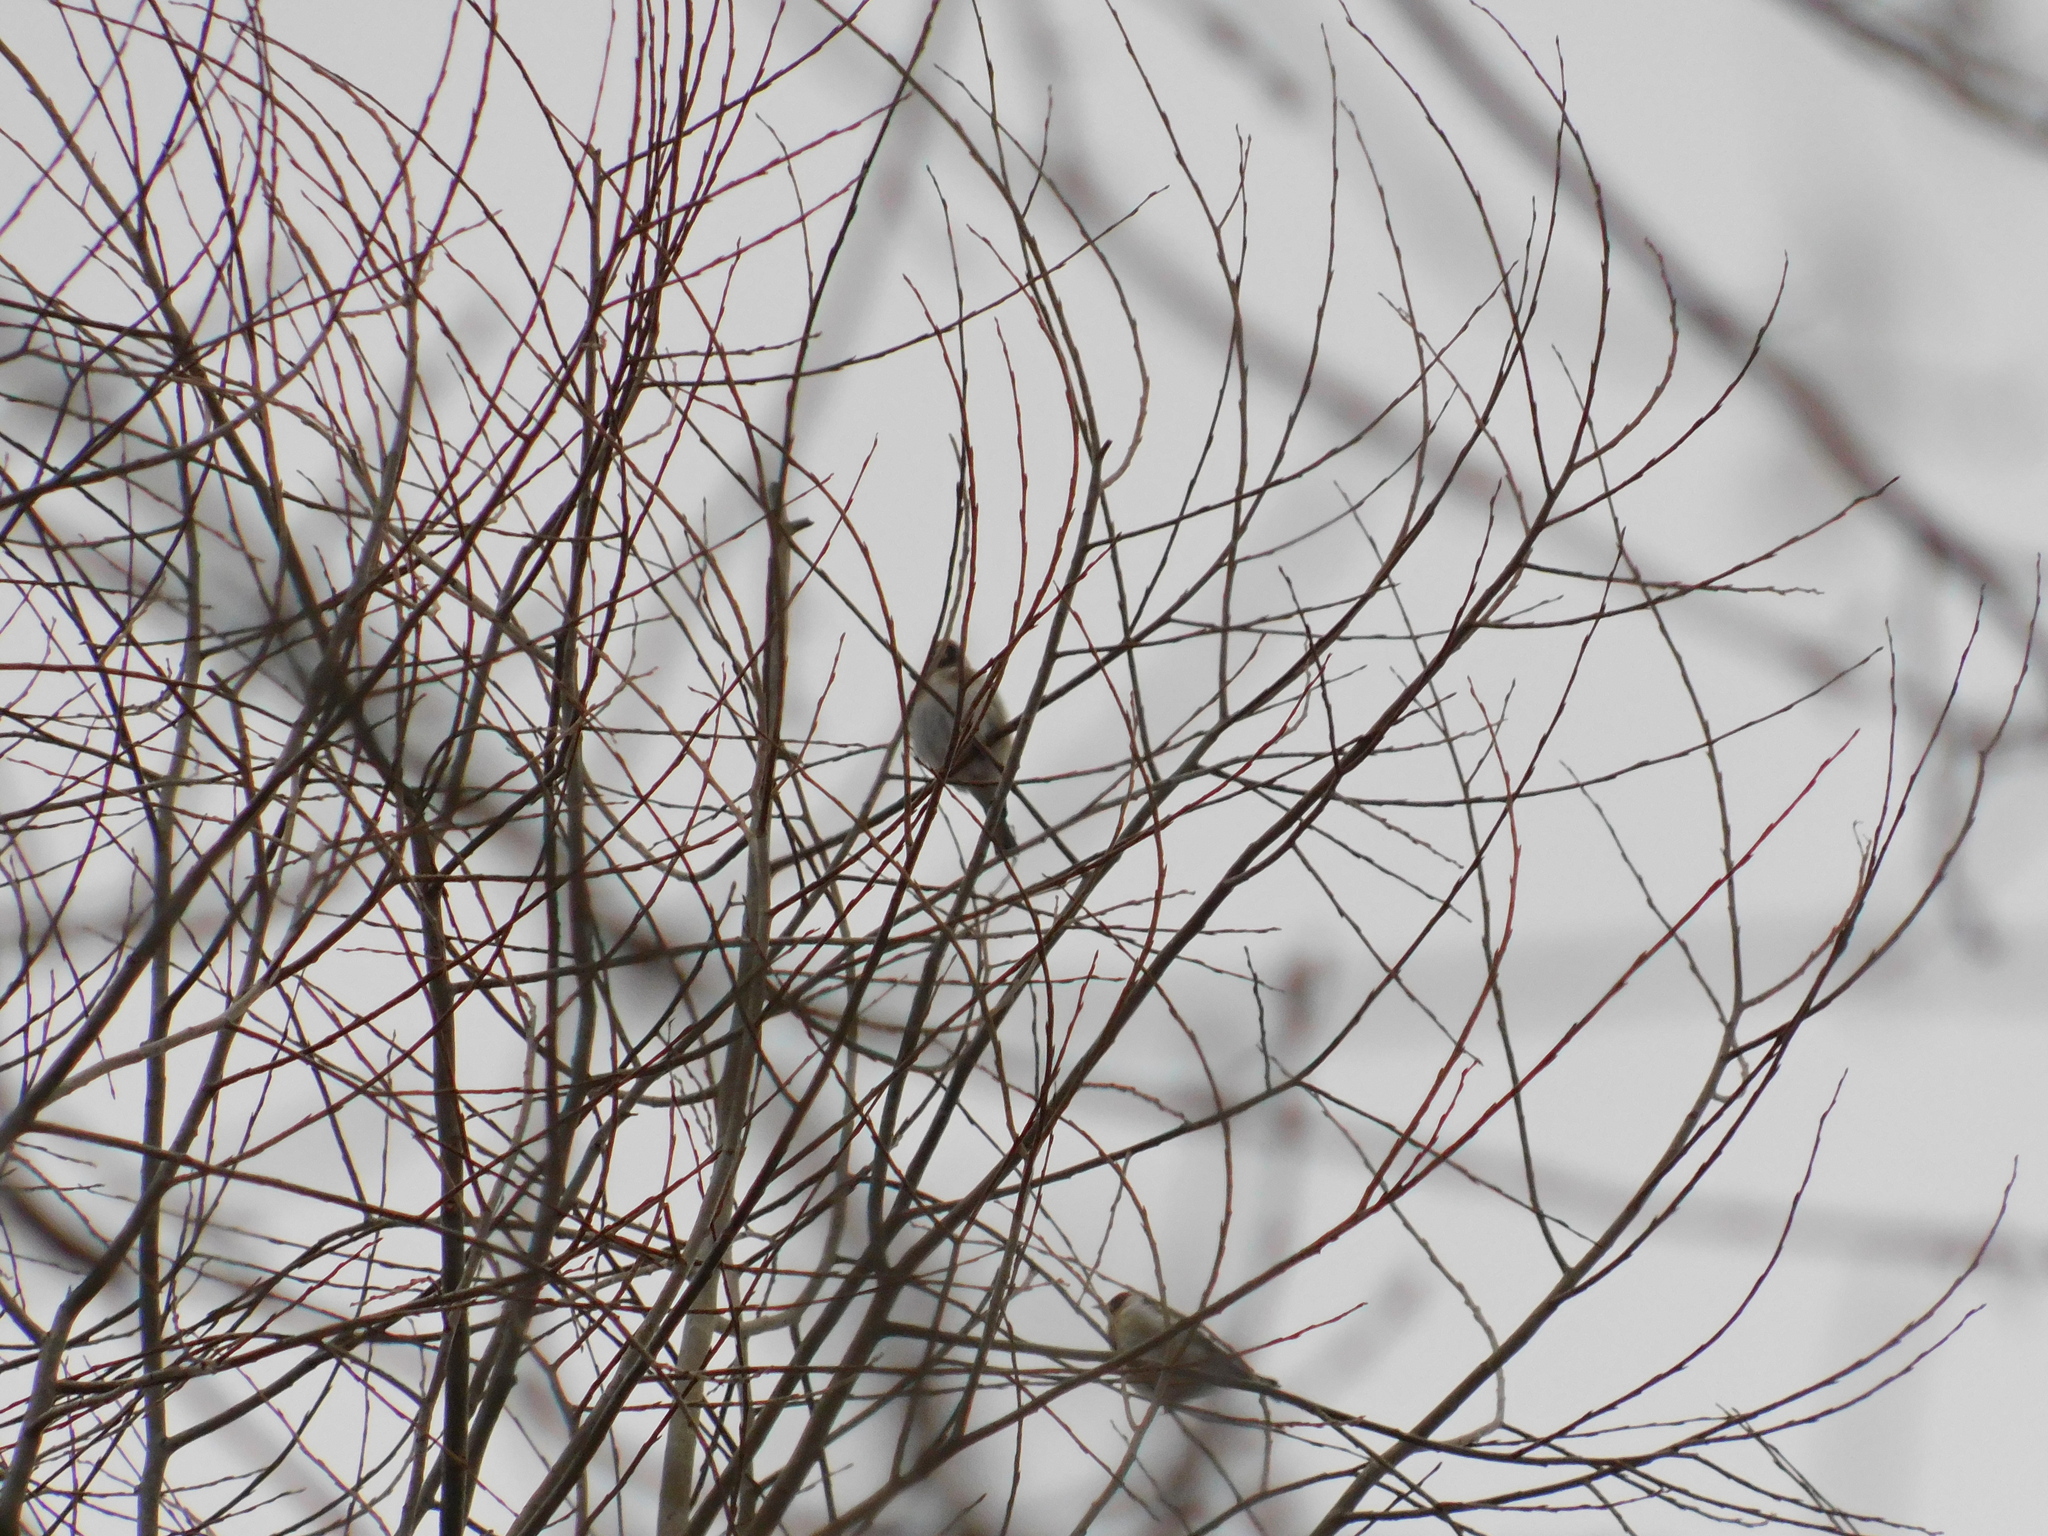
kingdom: Animalia
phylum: Chordata
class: Aves
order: Passeriformes
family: Fringillidae
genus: Carduelis
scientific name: Carduelis carduelis
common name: European goldfinch
